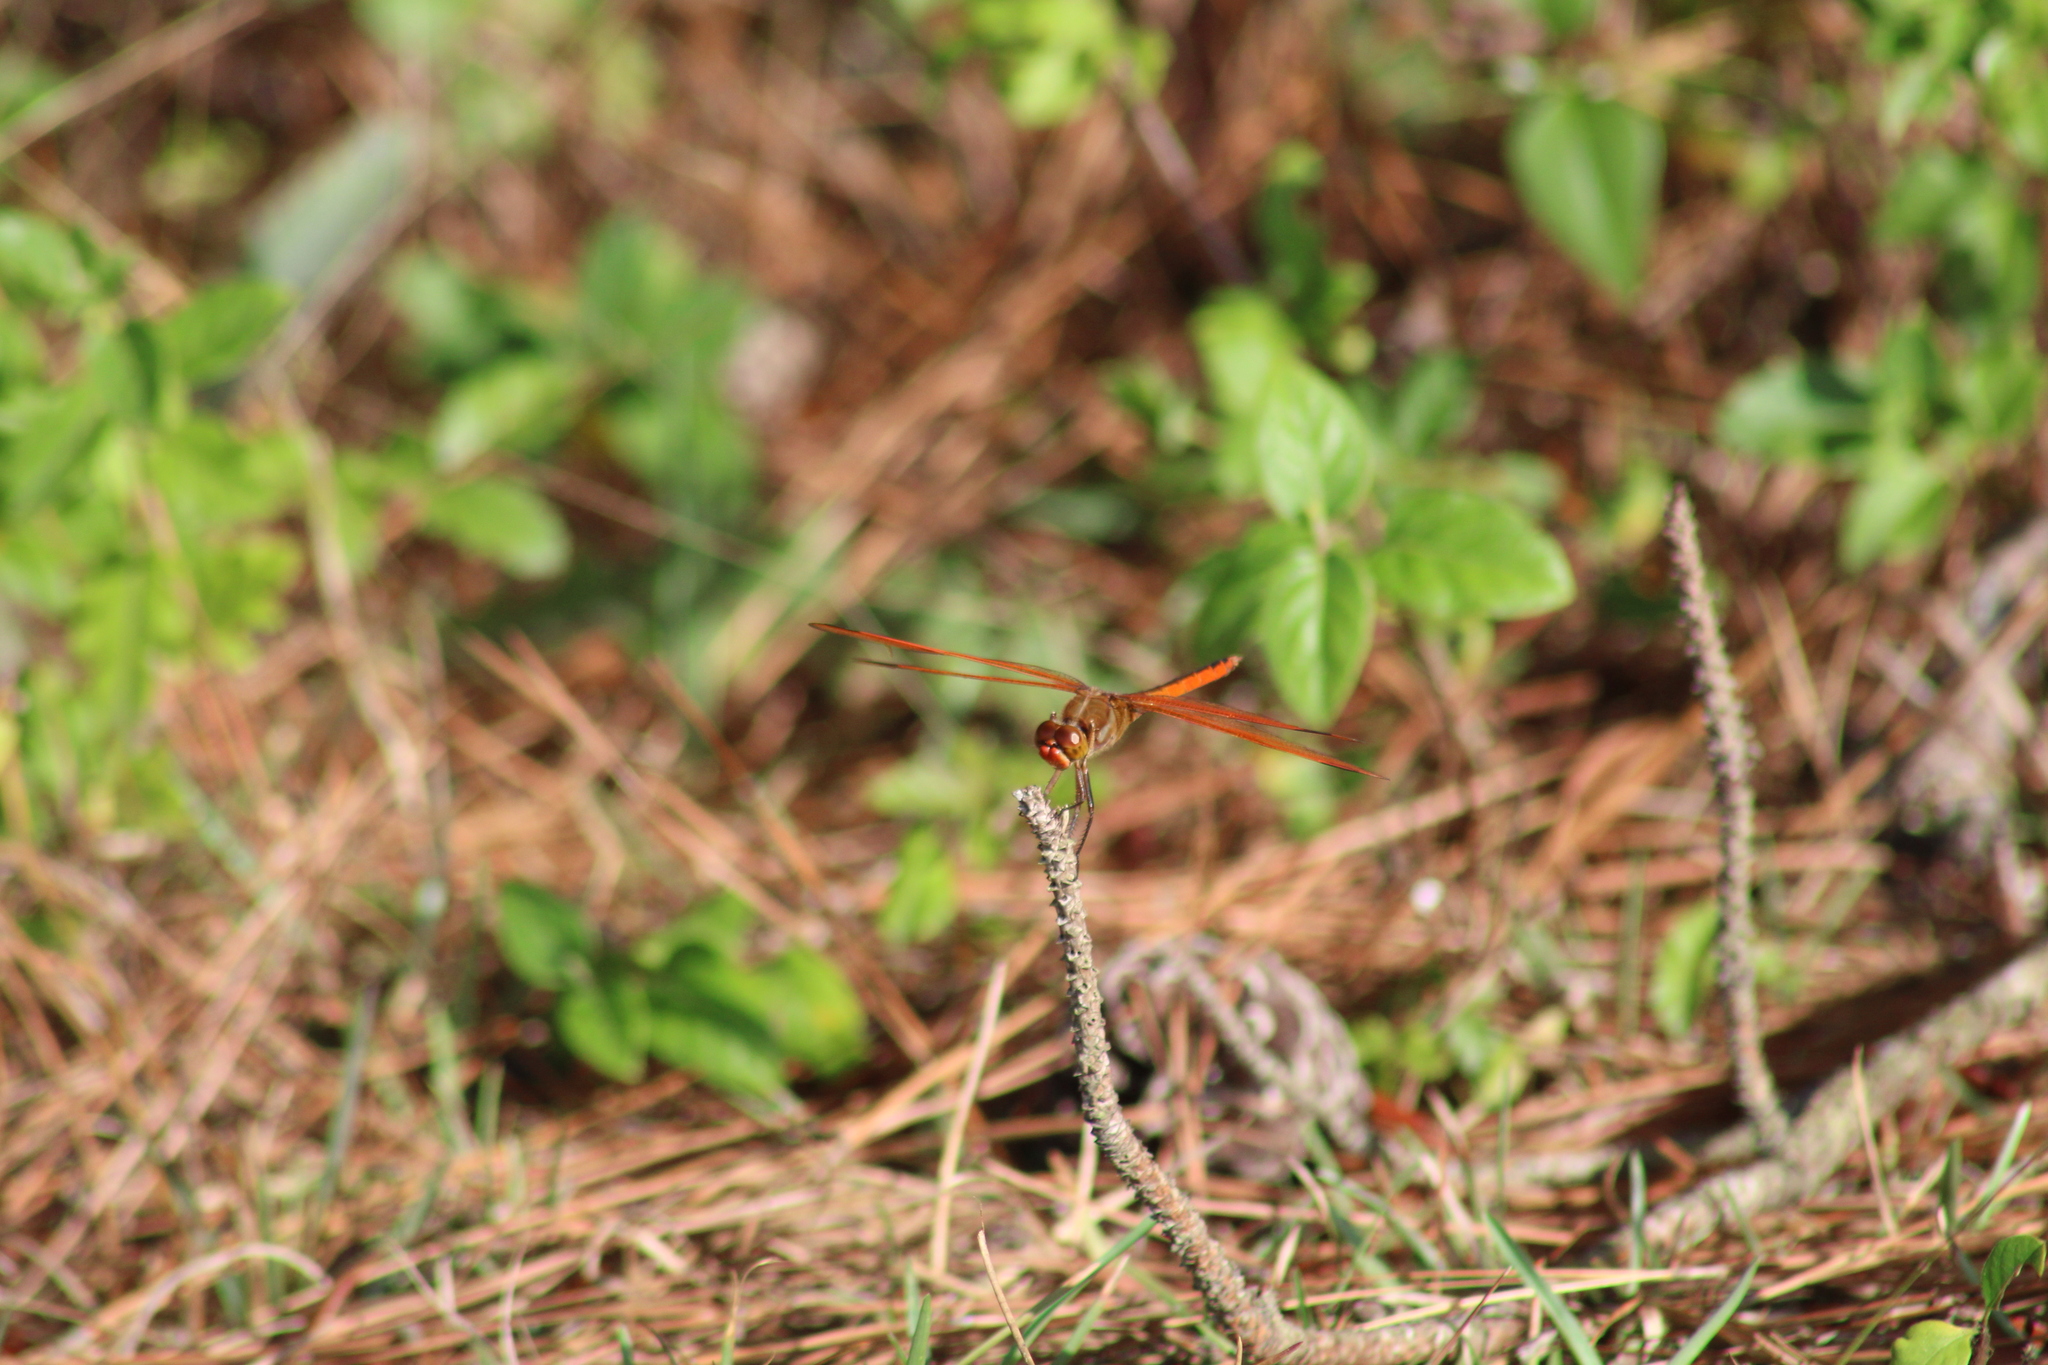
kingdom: Animalia
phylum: Arthropoda
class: Insecta
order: Odonata
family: Libellulidae
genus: Libellula
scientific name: Libellula auripennis
